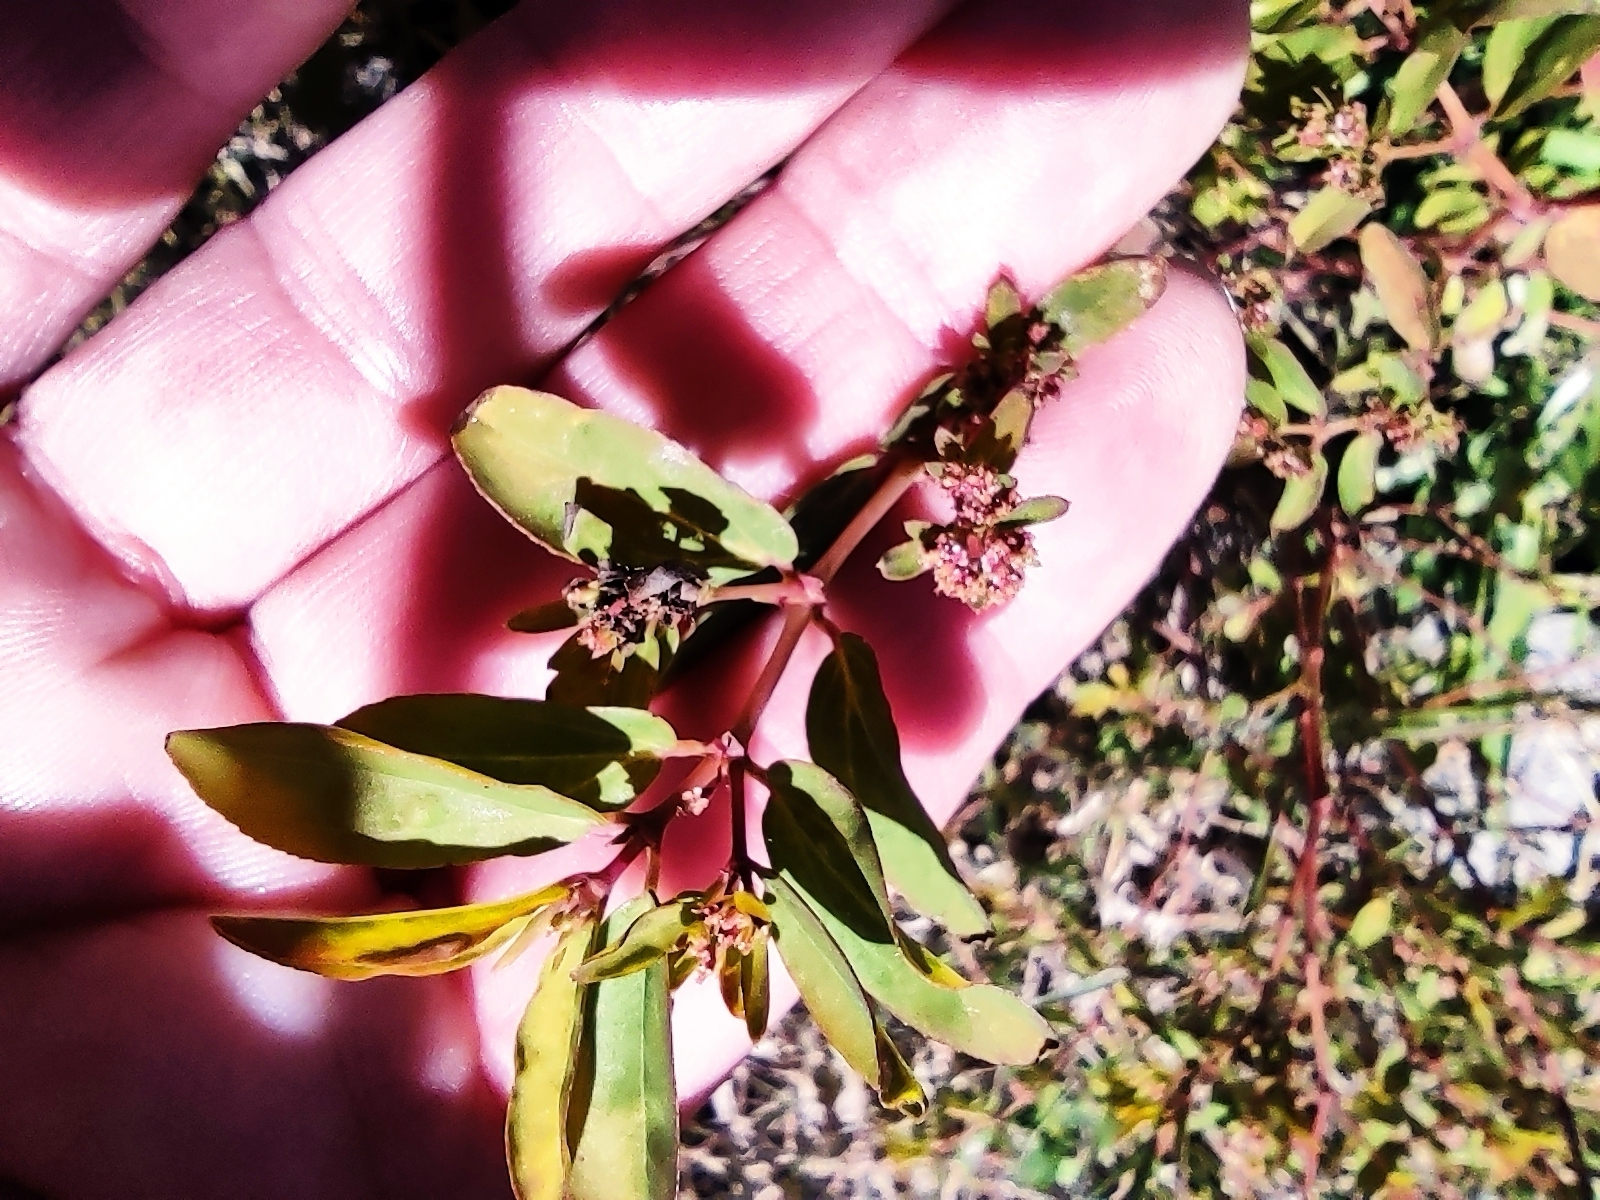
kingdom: Plantae
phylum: Tracheophyta
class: Magnoliopsida
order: Malpighiales
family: Euphorbiaceae
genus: Euphorbia
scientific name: Euphorbia hypericifolia
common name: Graceful sandmat
